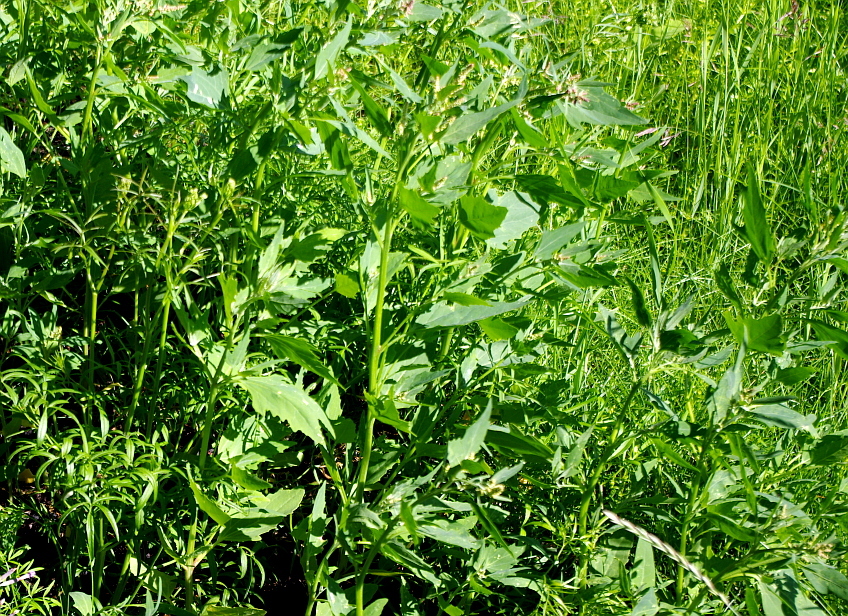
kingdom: Plantae
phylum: Tracheophyta
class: Magnoliopsida
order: Caryophyllales
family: Amaranthaceae
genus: Atriplex
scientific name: Atriplex nudicaulis
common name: Baltic orache
